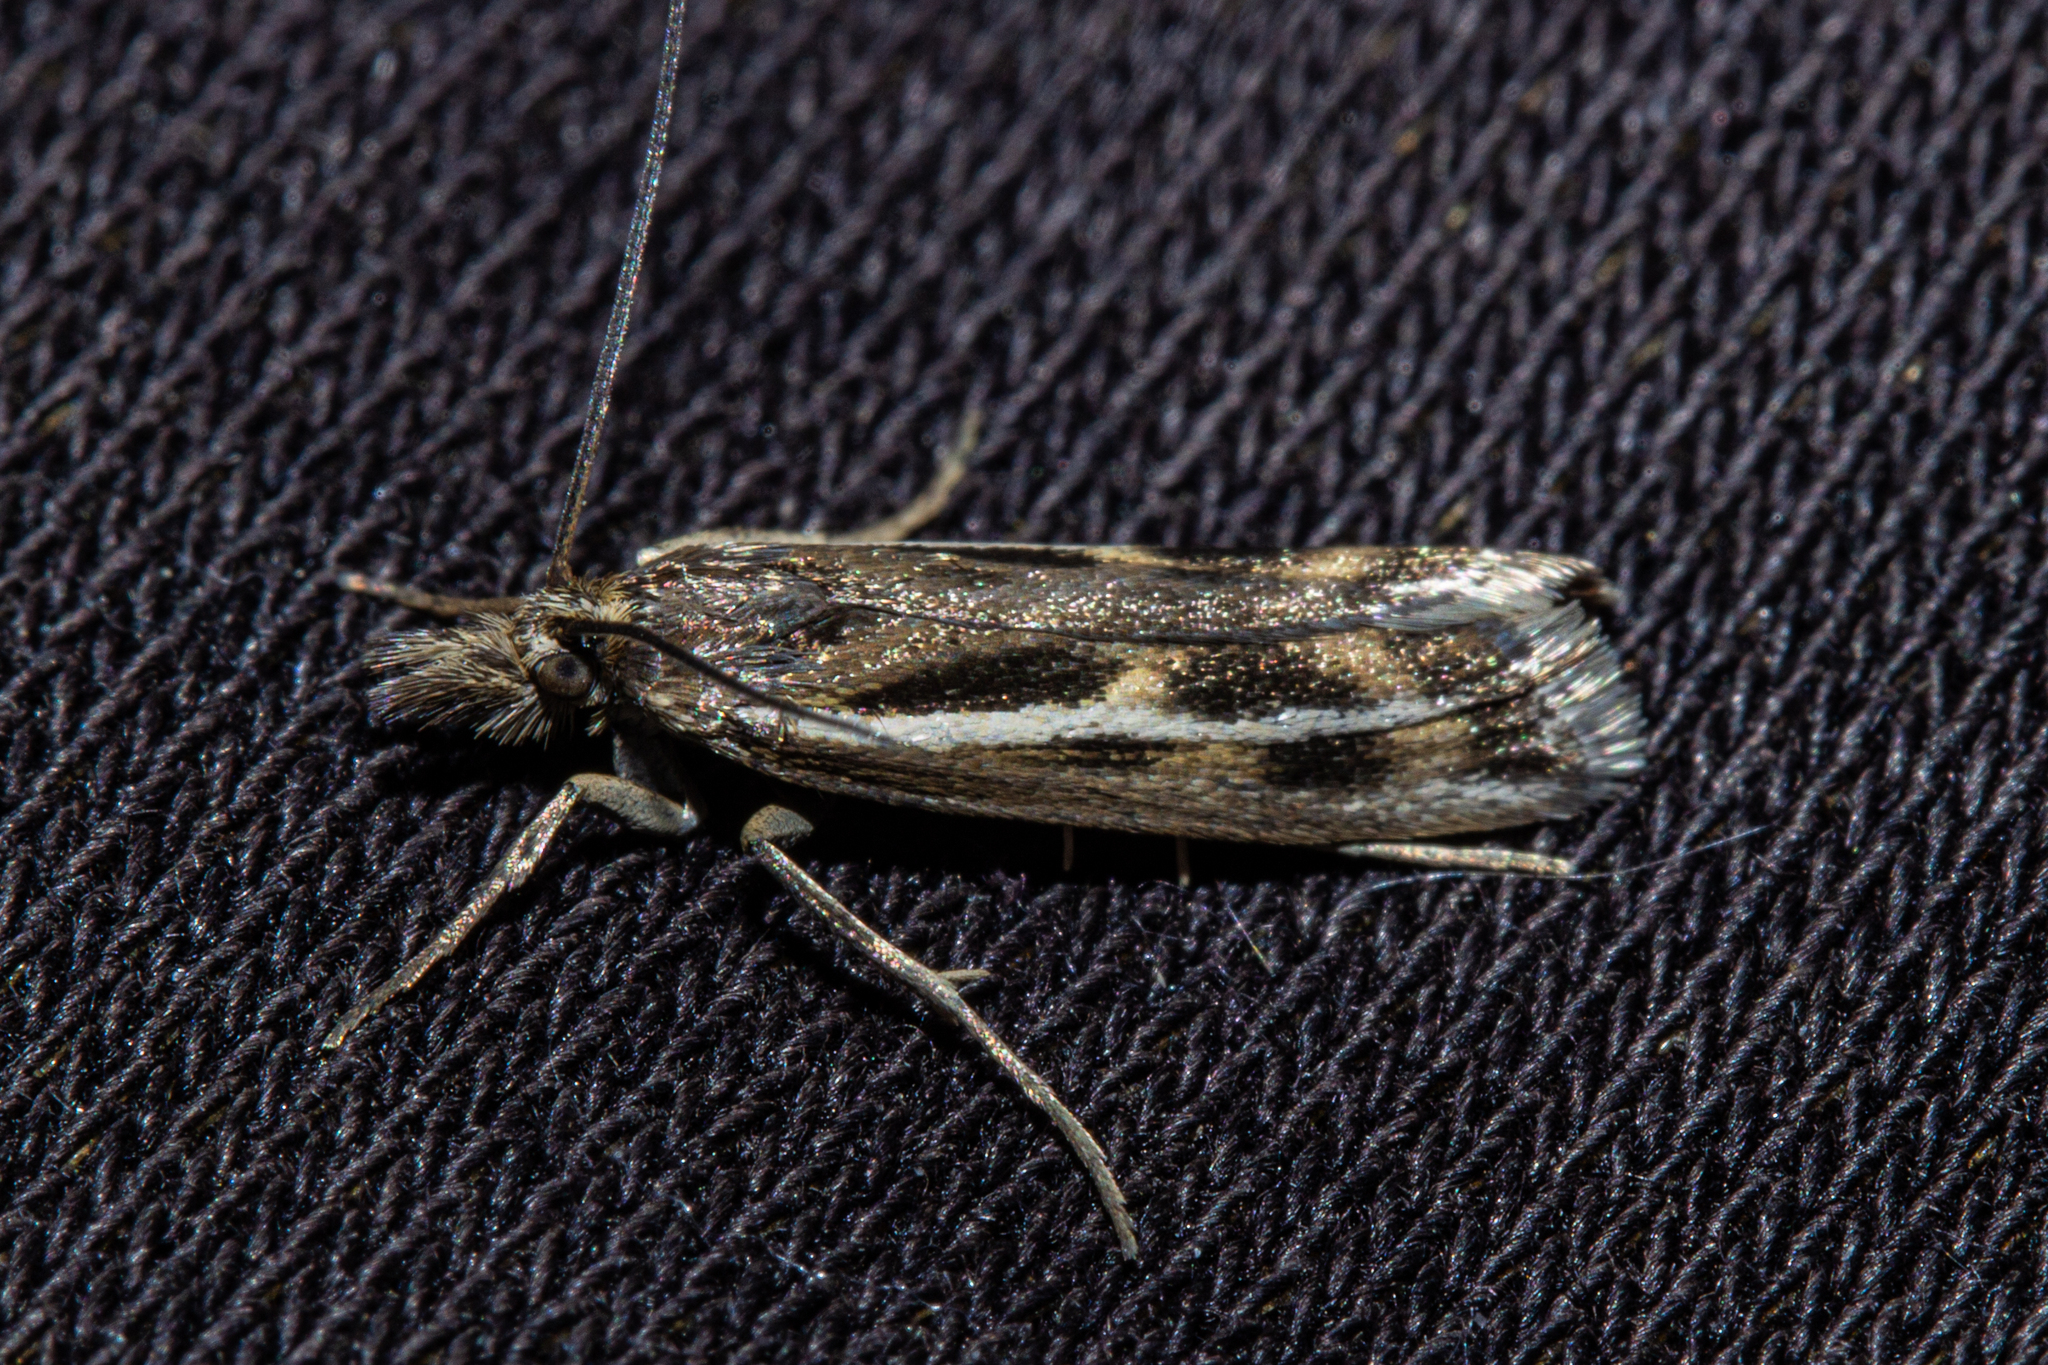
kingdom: Animalia
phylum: Arthropoda
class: Insecta
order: Lepidoptera
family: Crambidae
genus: Orocrambus
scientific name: Orocrambus corruptus
